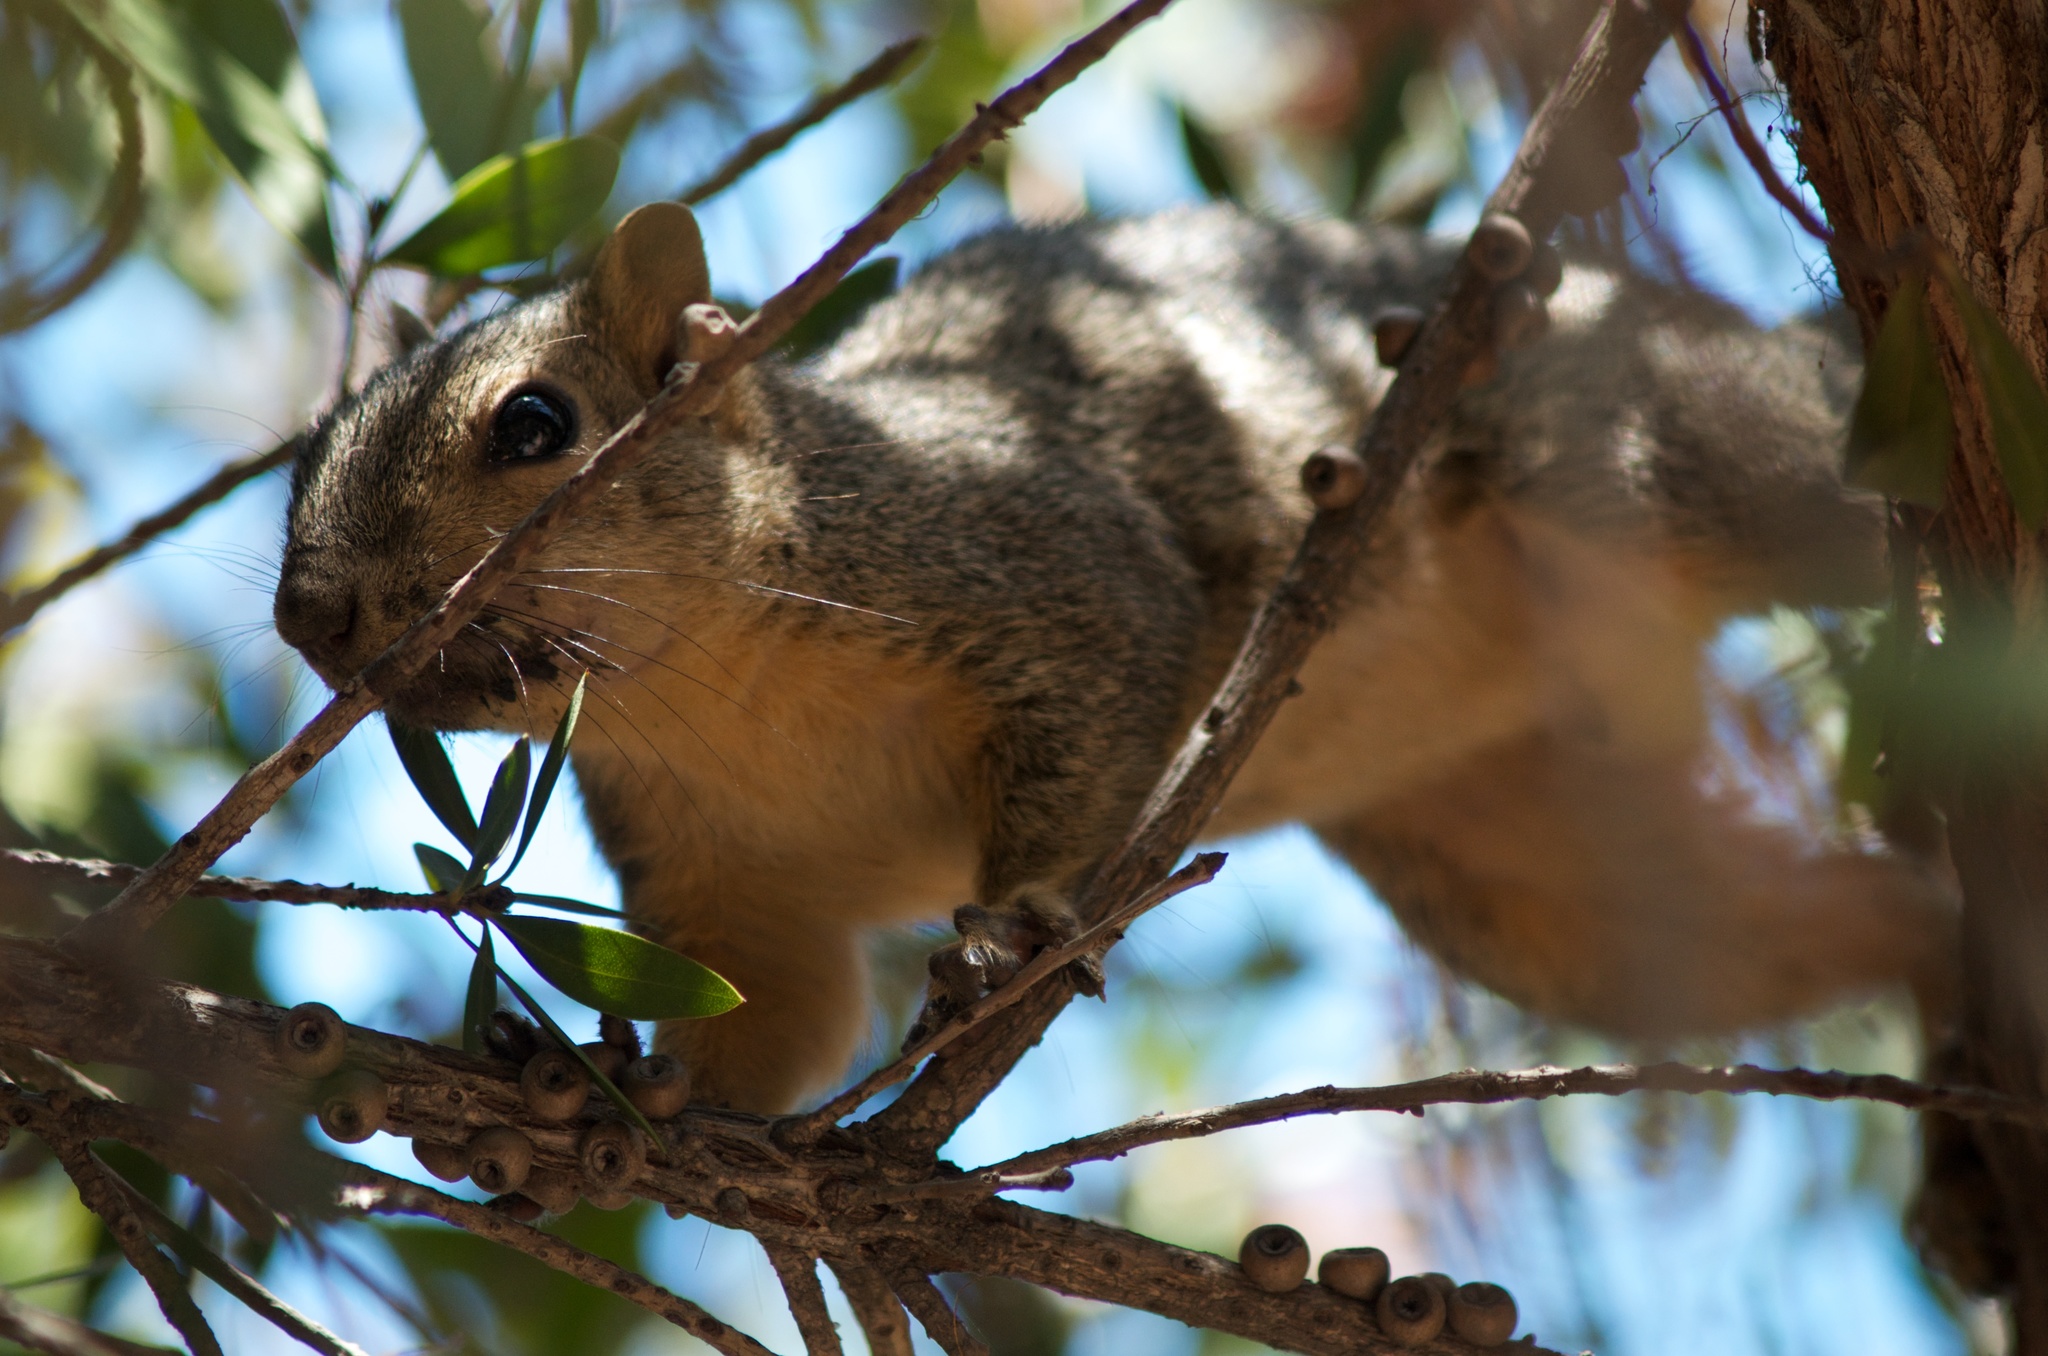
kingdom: Animalia
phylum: Chordata
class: Mammalia
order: Rodentia
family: Sciuridae
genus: Sciurus
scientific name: Sciurus niger
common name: Fox squirrel
